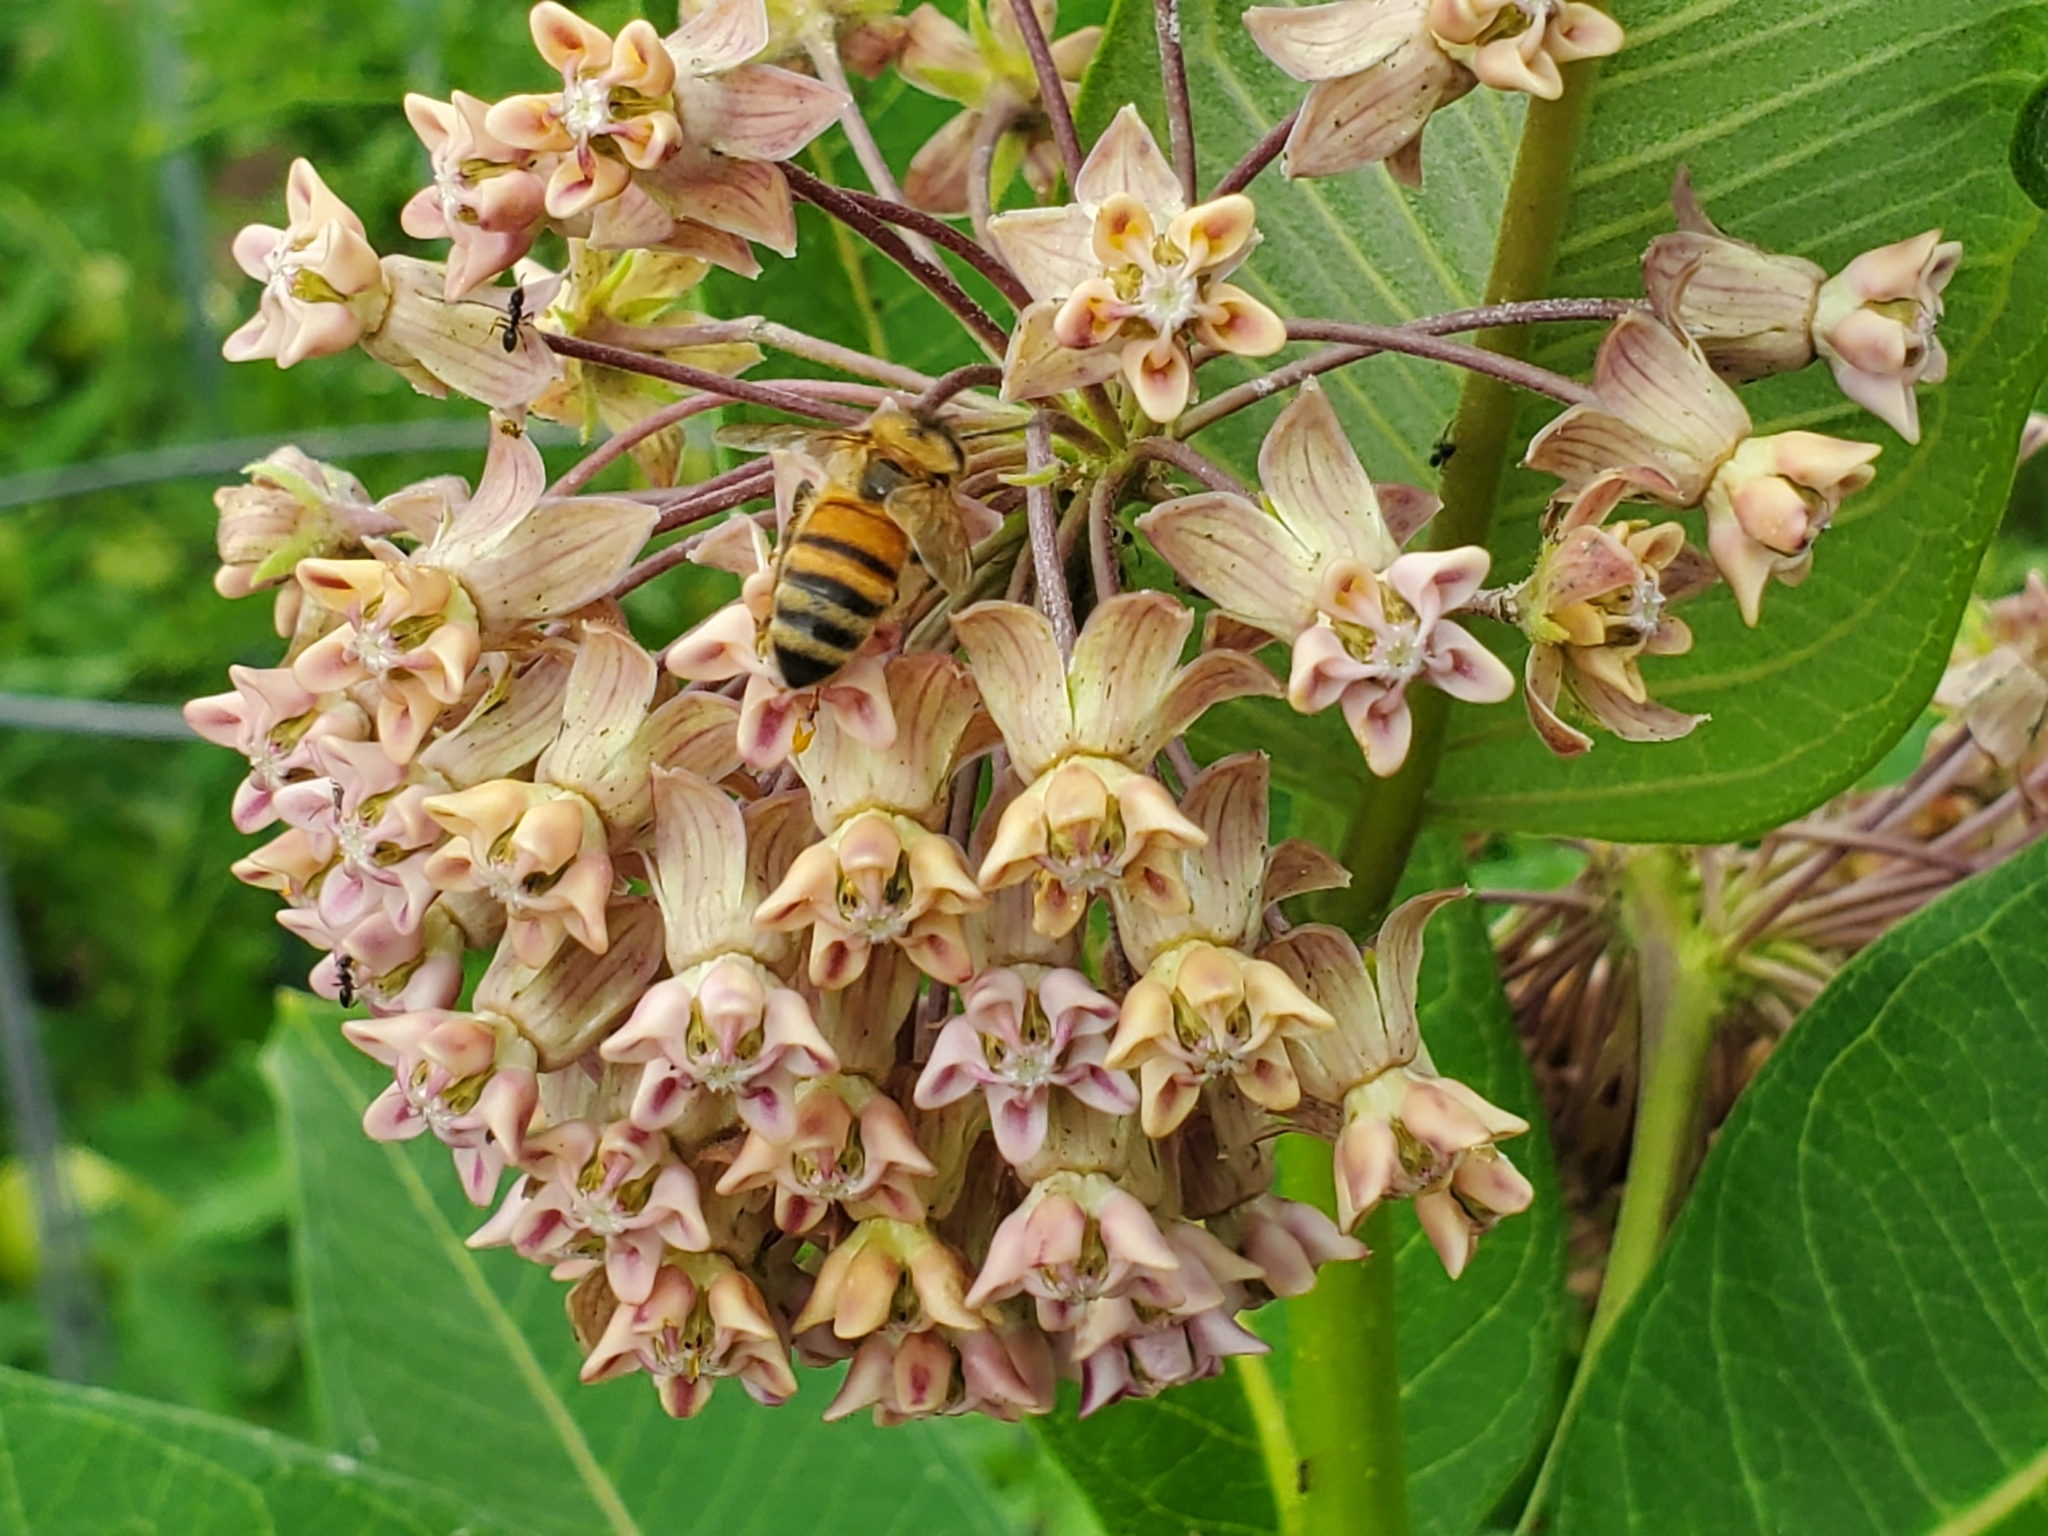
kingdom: Animalia
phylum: Arthropoda
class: Insecta
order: Hymenoptera
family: Apidae
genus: Apis
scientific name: Apis mellifera
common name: Honey bee
